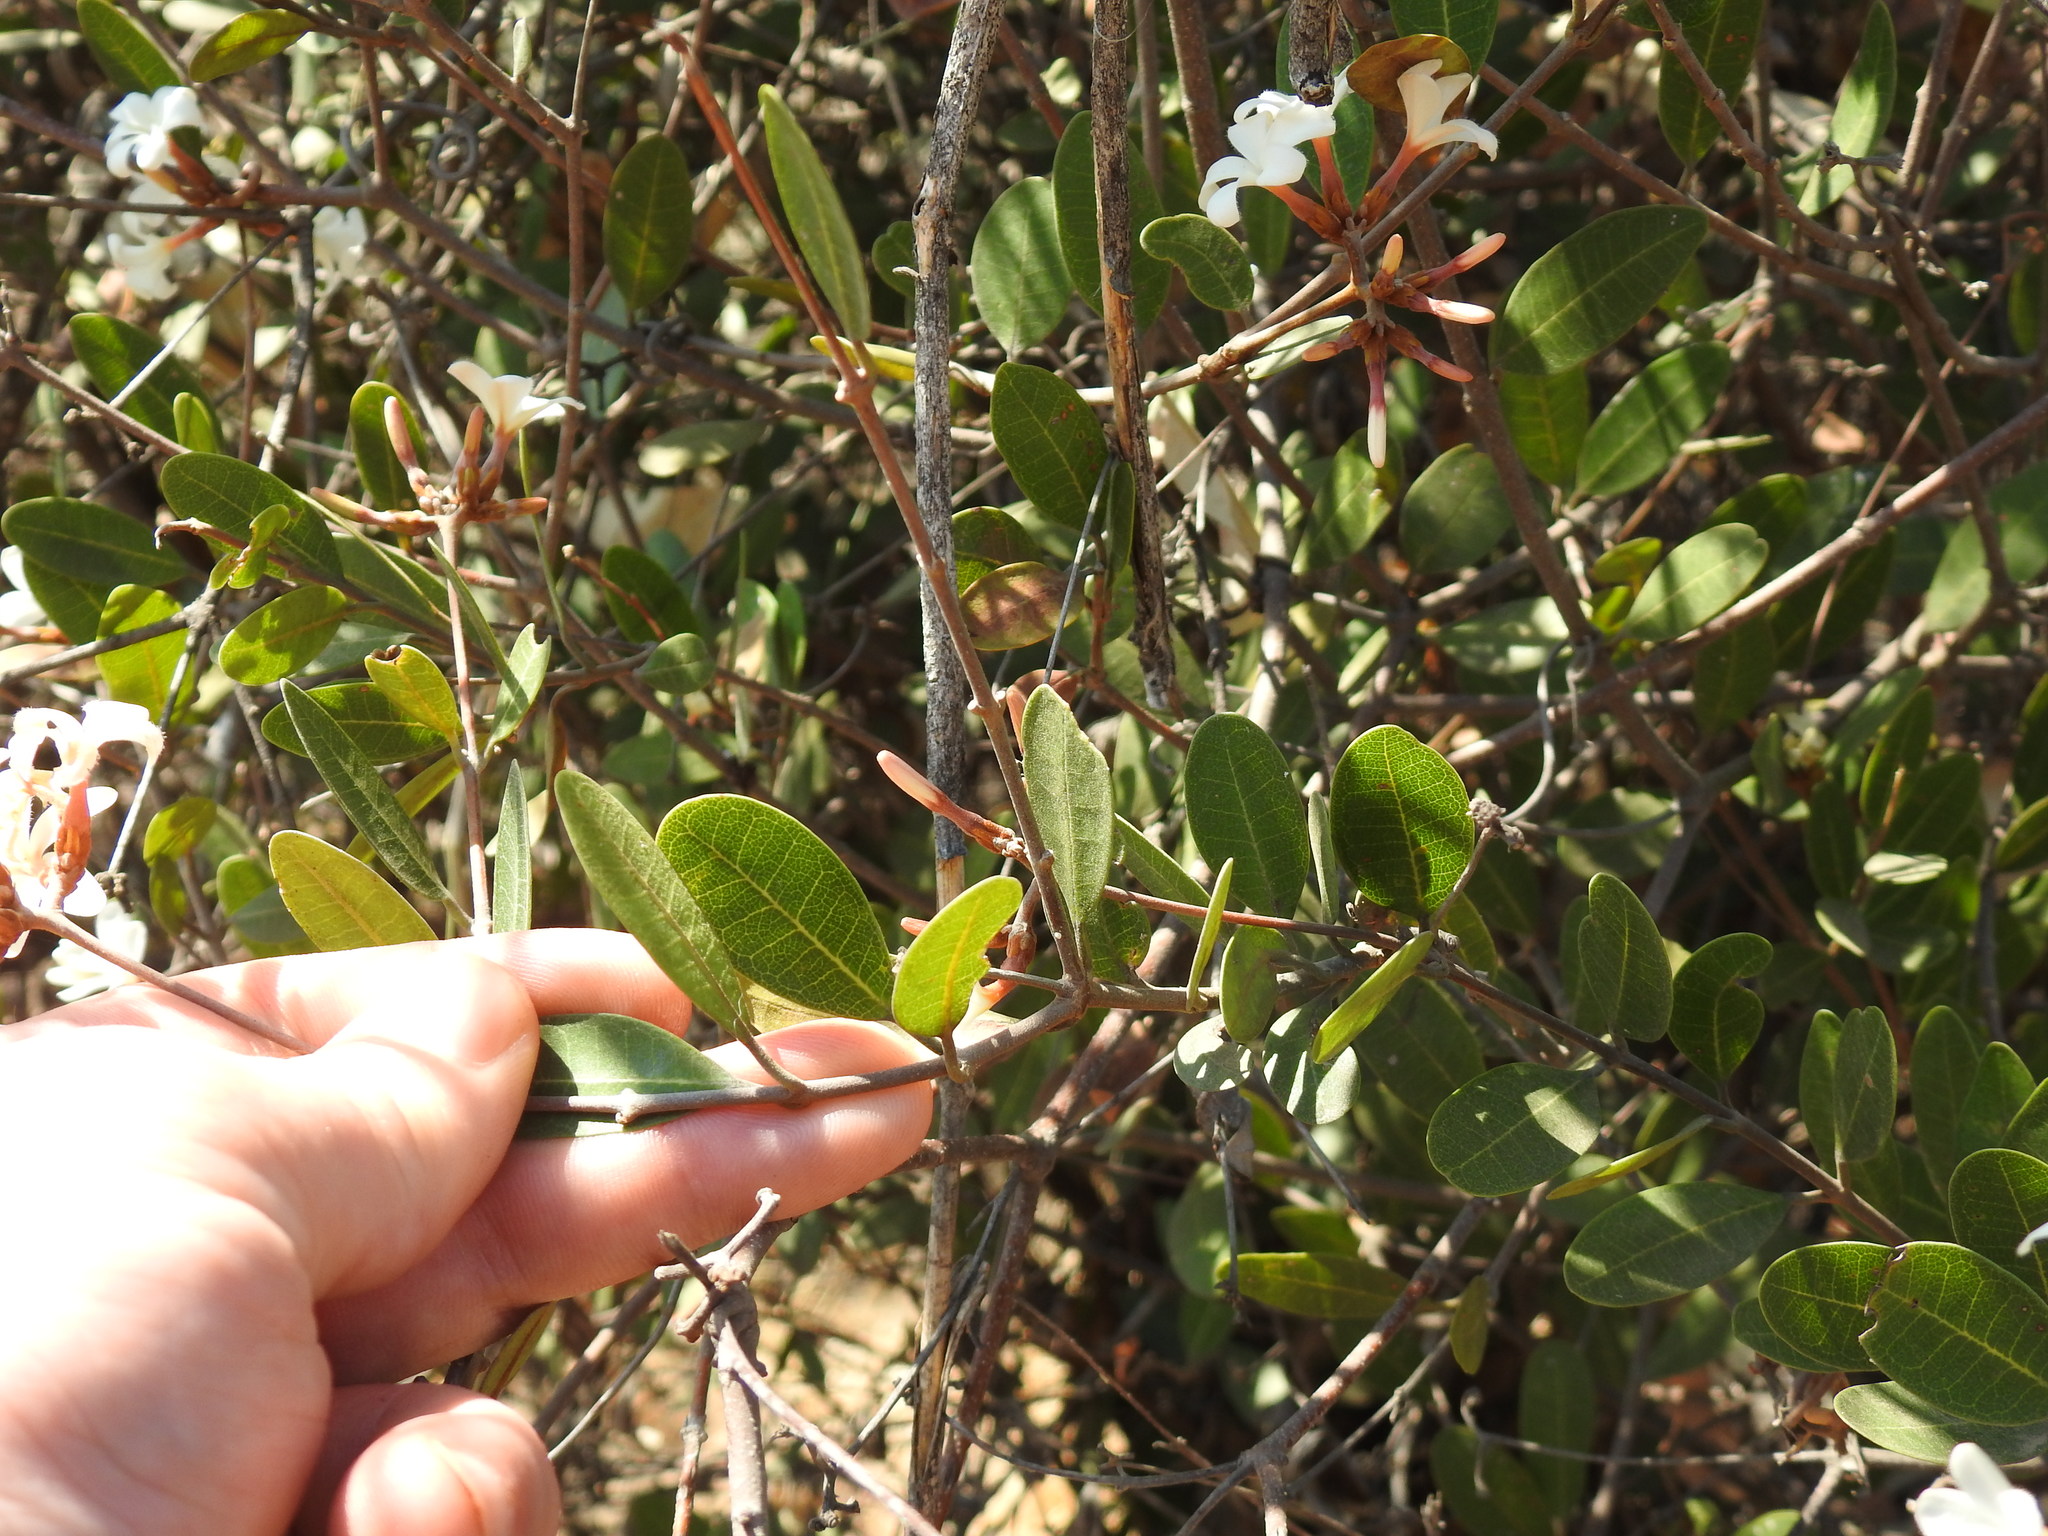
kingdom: Plantae
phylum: Tracheophyta
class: Magnoliopsida
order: Gentianales
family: Apocynaceae
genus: Ancylobothrys
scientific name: Ancylobothrys capensis
